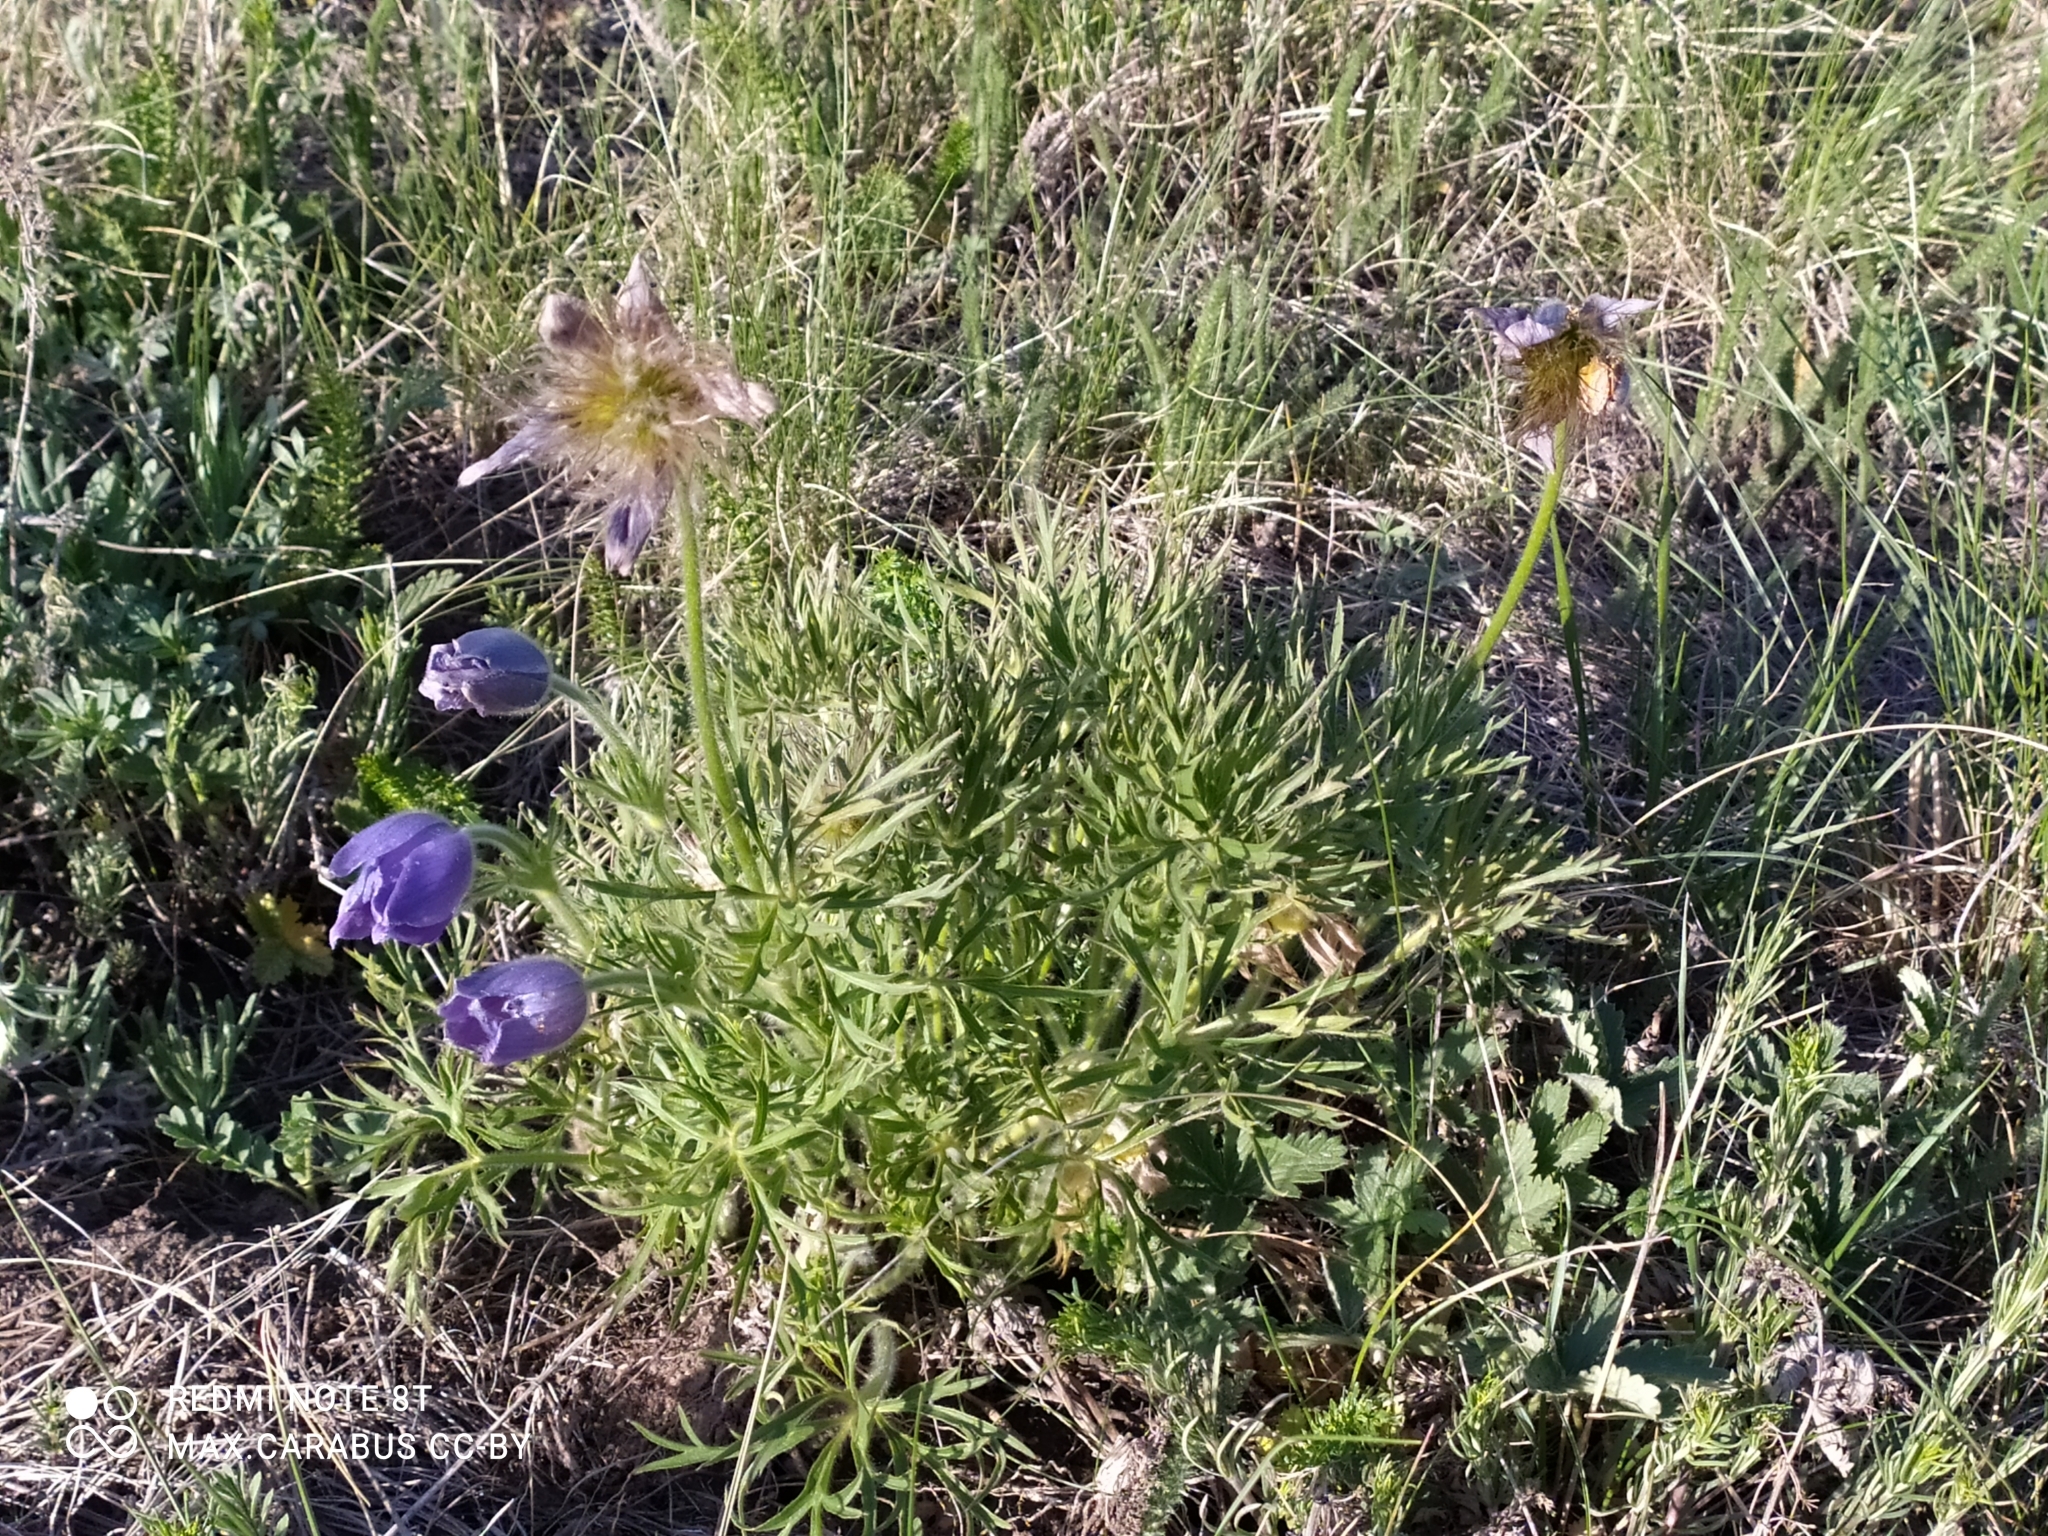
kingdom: Plantae
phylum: Tracheophyta
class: Magnoliopsida
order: Ranunculales
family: Ranunculaceae
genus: Pulsatilla
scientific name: Pulsatilla patens
